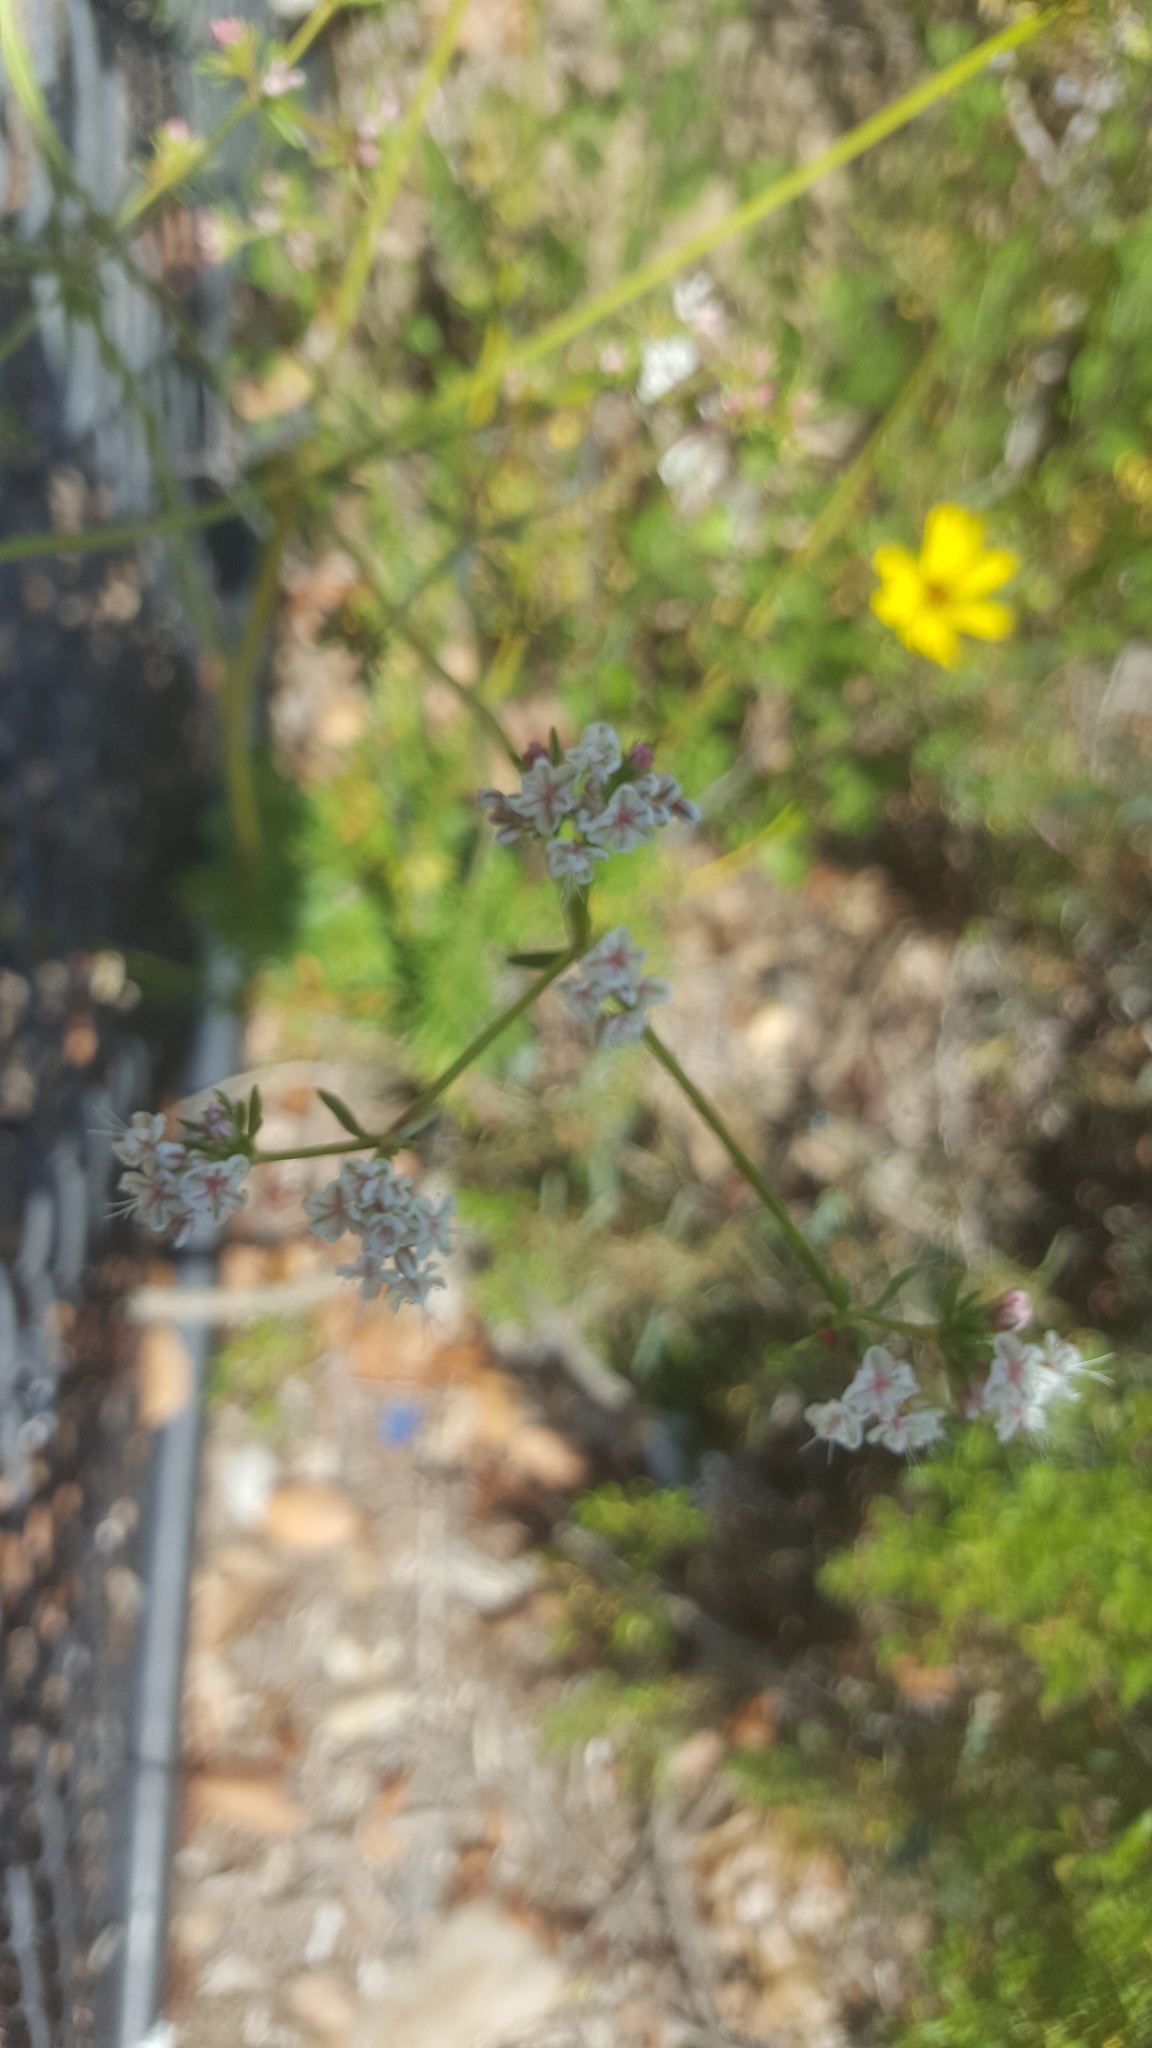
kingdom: Plantae
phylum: Tracheophyta
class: Magnoliopsida
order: Caryophyllales
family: Polygonaceae
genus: Eriogonum
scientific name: Eriogonum fasciculatum
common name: California wild buckwheat
